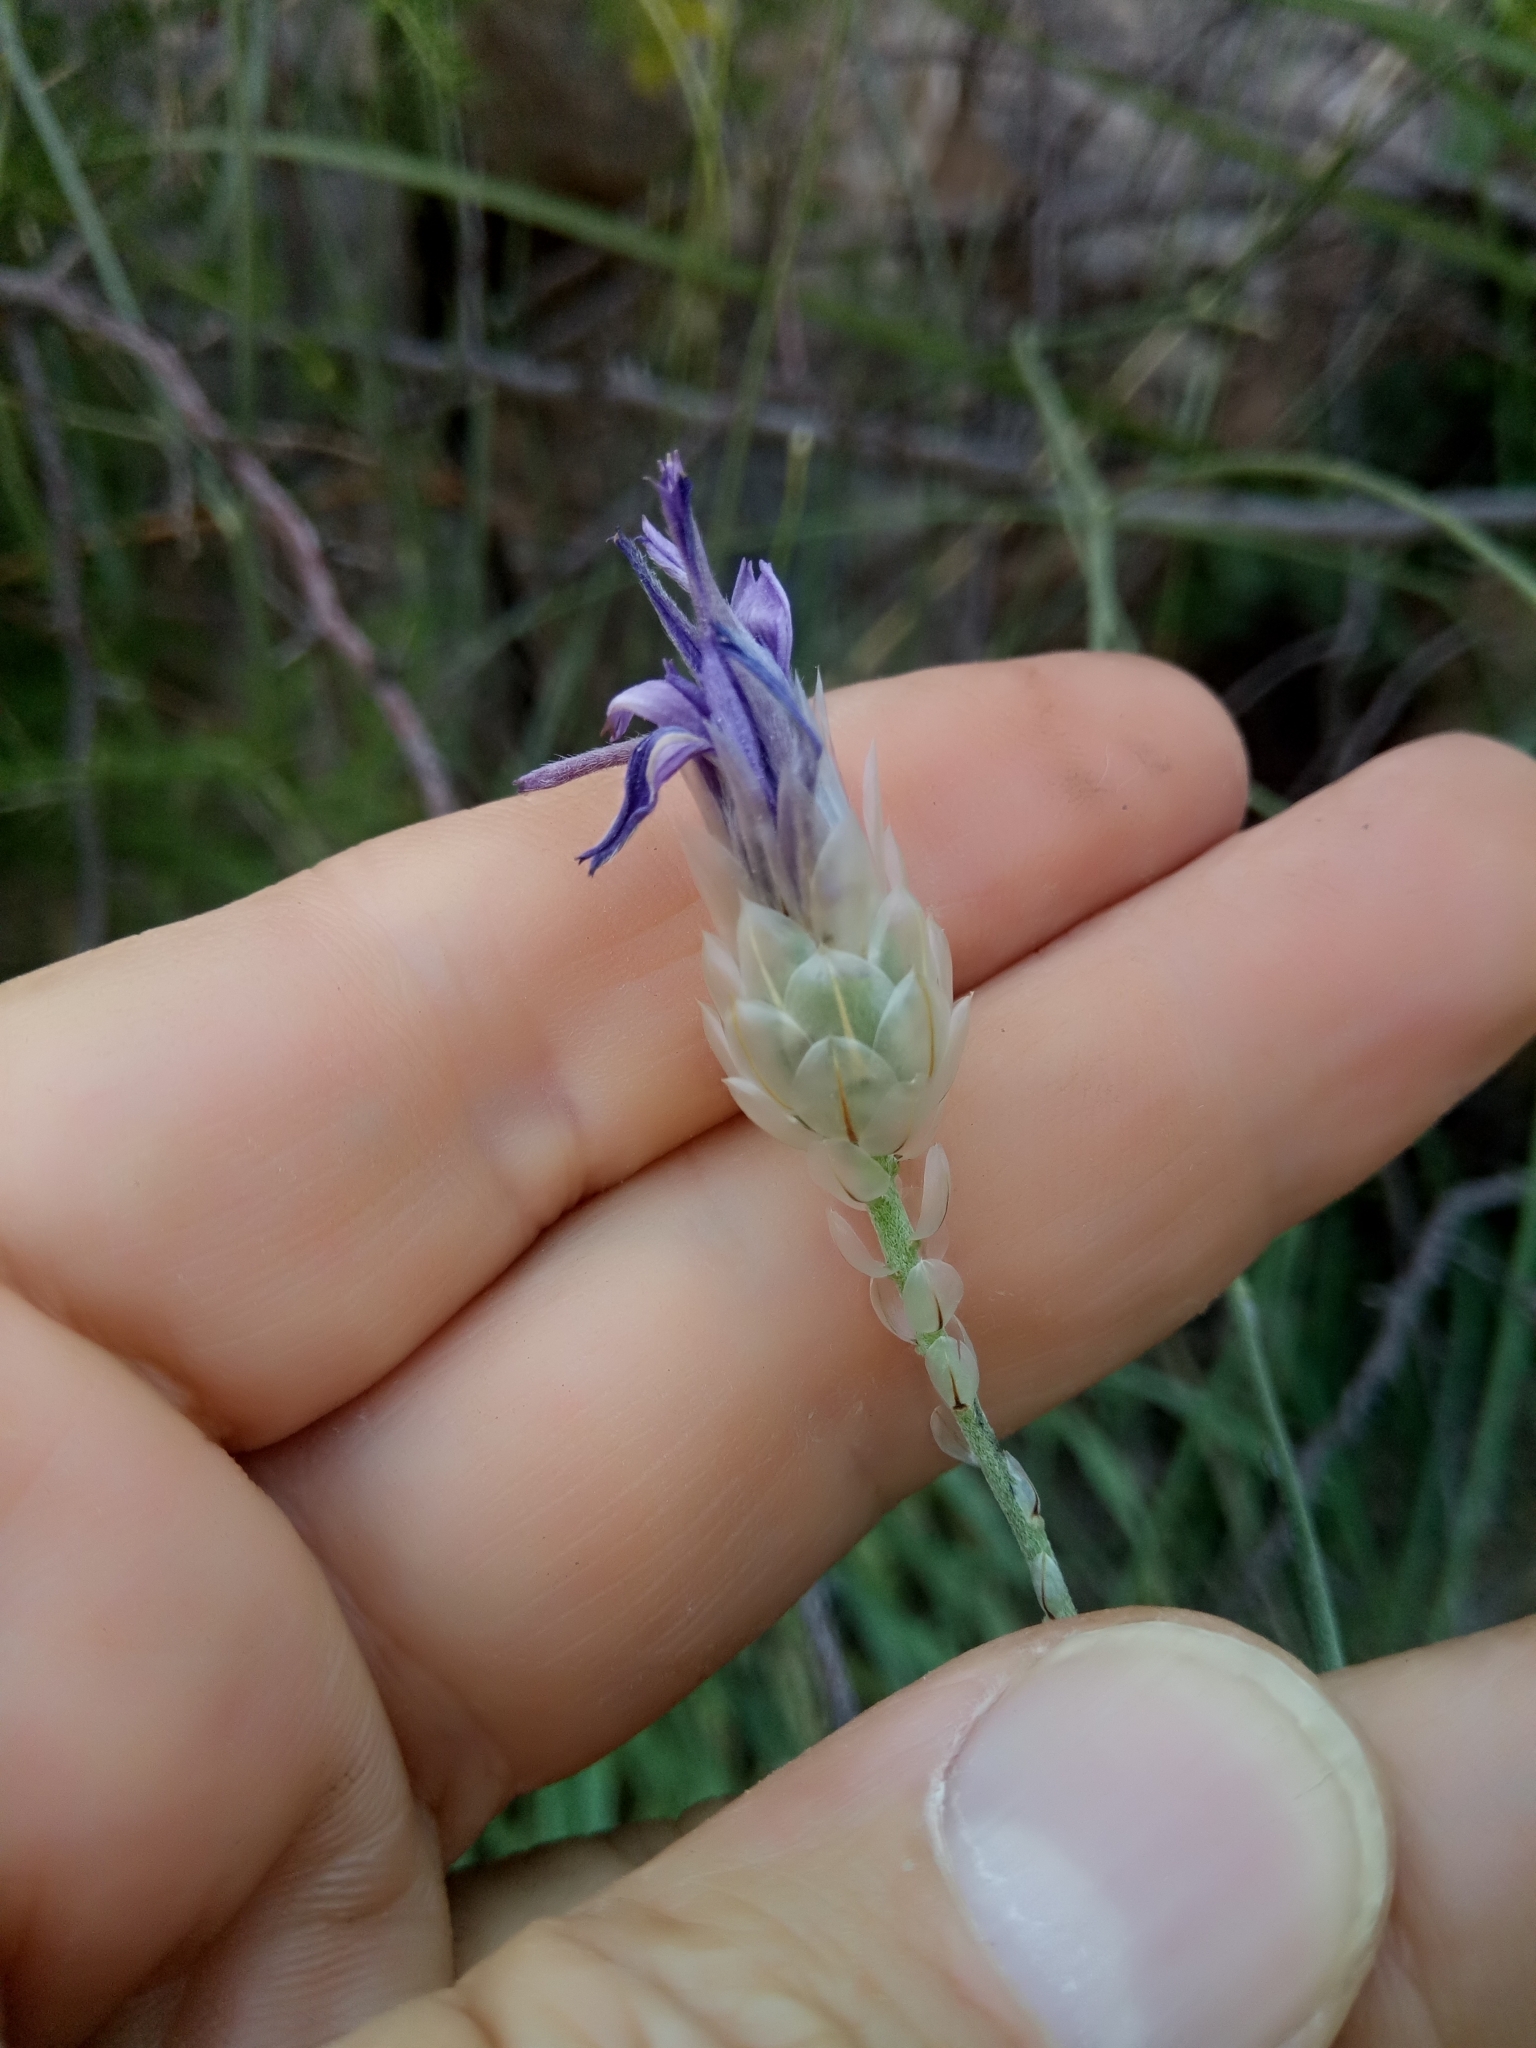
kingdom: Plantae
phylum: Tracheophyta
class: Magnoliopsida
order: Asterales
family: Asteraceae
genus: Catananche
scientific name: Catananche caerulea
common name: Blue cupidone
